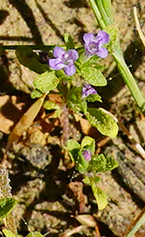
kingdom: Plantae
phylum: Tracheophyta
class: Magnoliopsida
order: Lamiales
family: Lamiaceae
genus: Pogogyne
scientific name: Pogogyne serpylloides
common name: Thymeleaf mesamint
